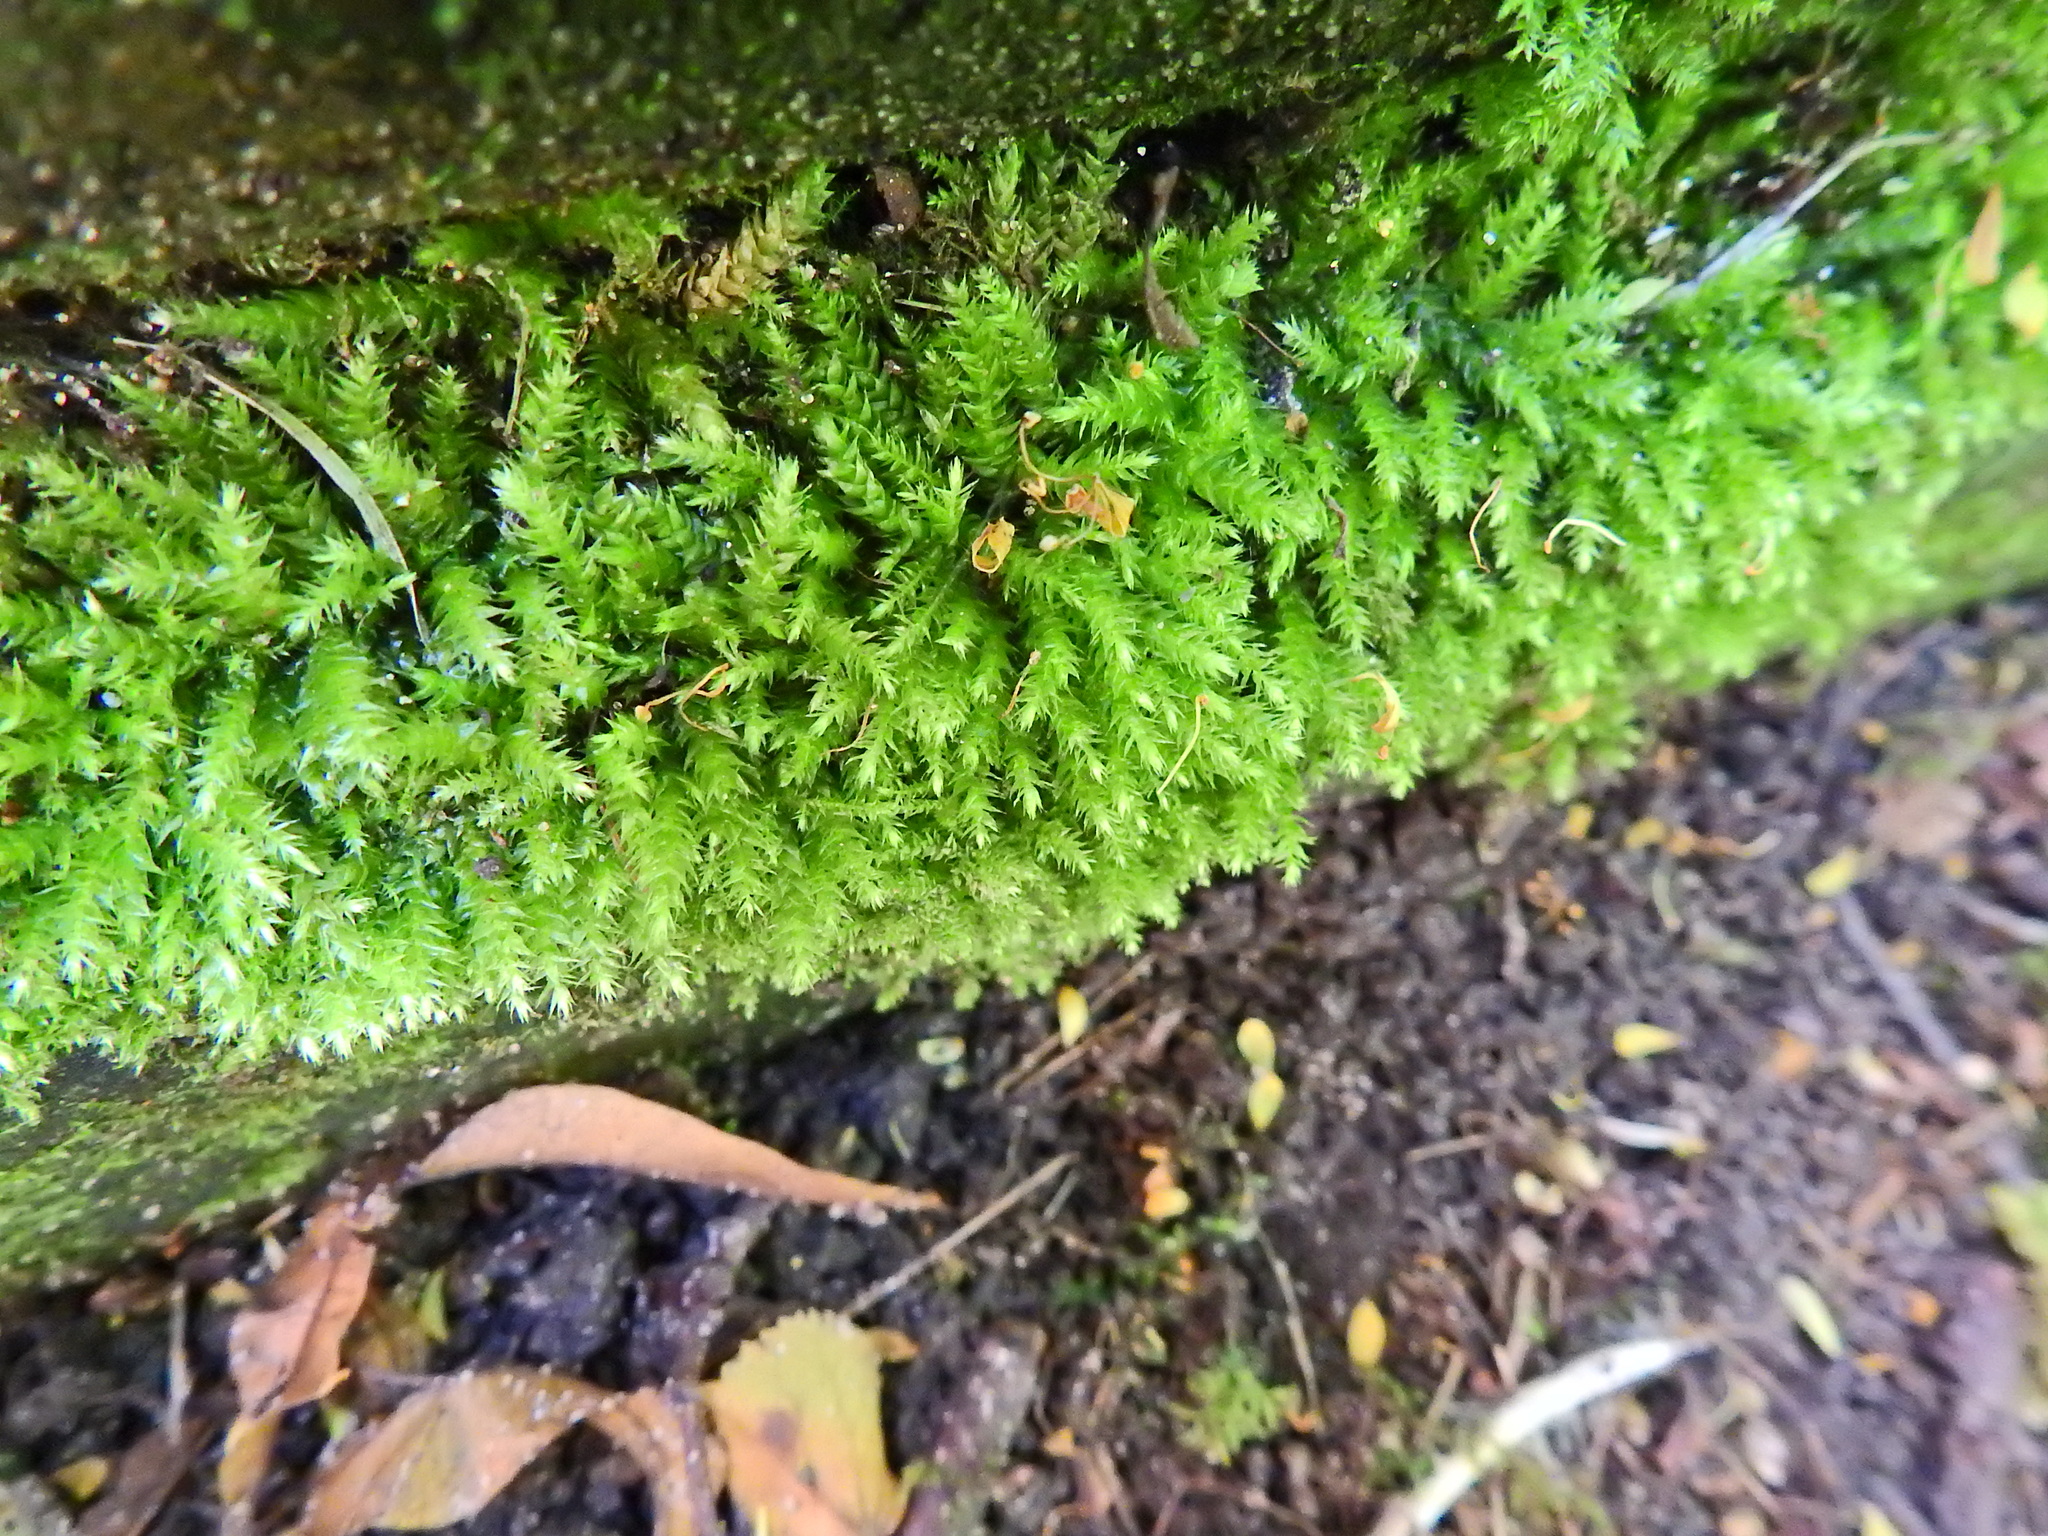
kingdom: Plantae
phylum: Bryophyta
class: Bryopsida
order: Hypnales
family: Brachytheciaceae
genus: Brachythecium
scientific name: Brachythecium rutabulum
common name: Rough-stalked feather-moss
